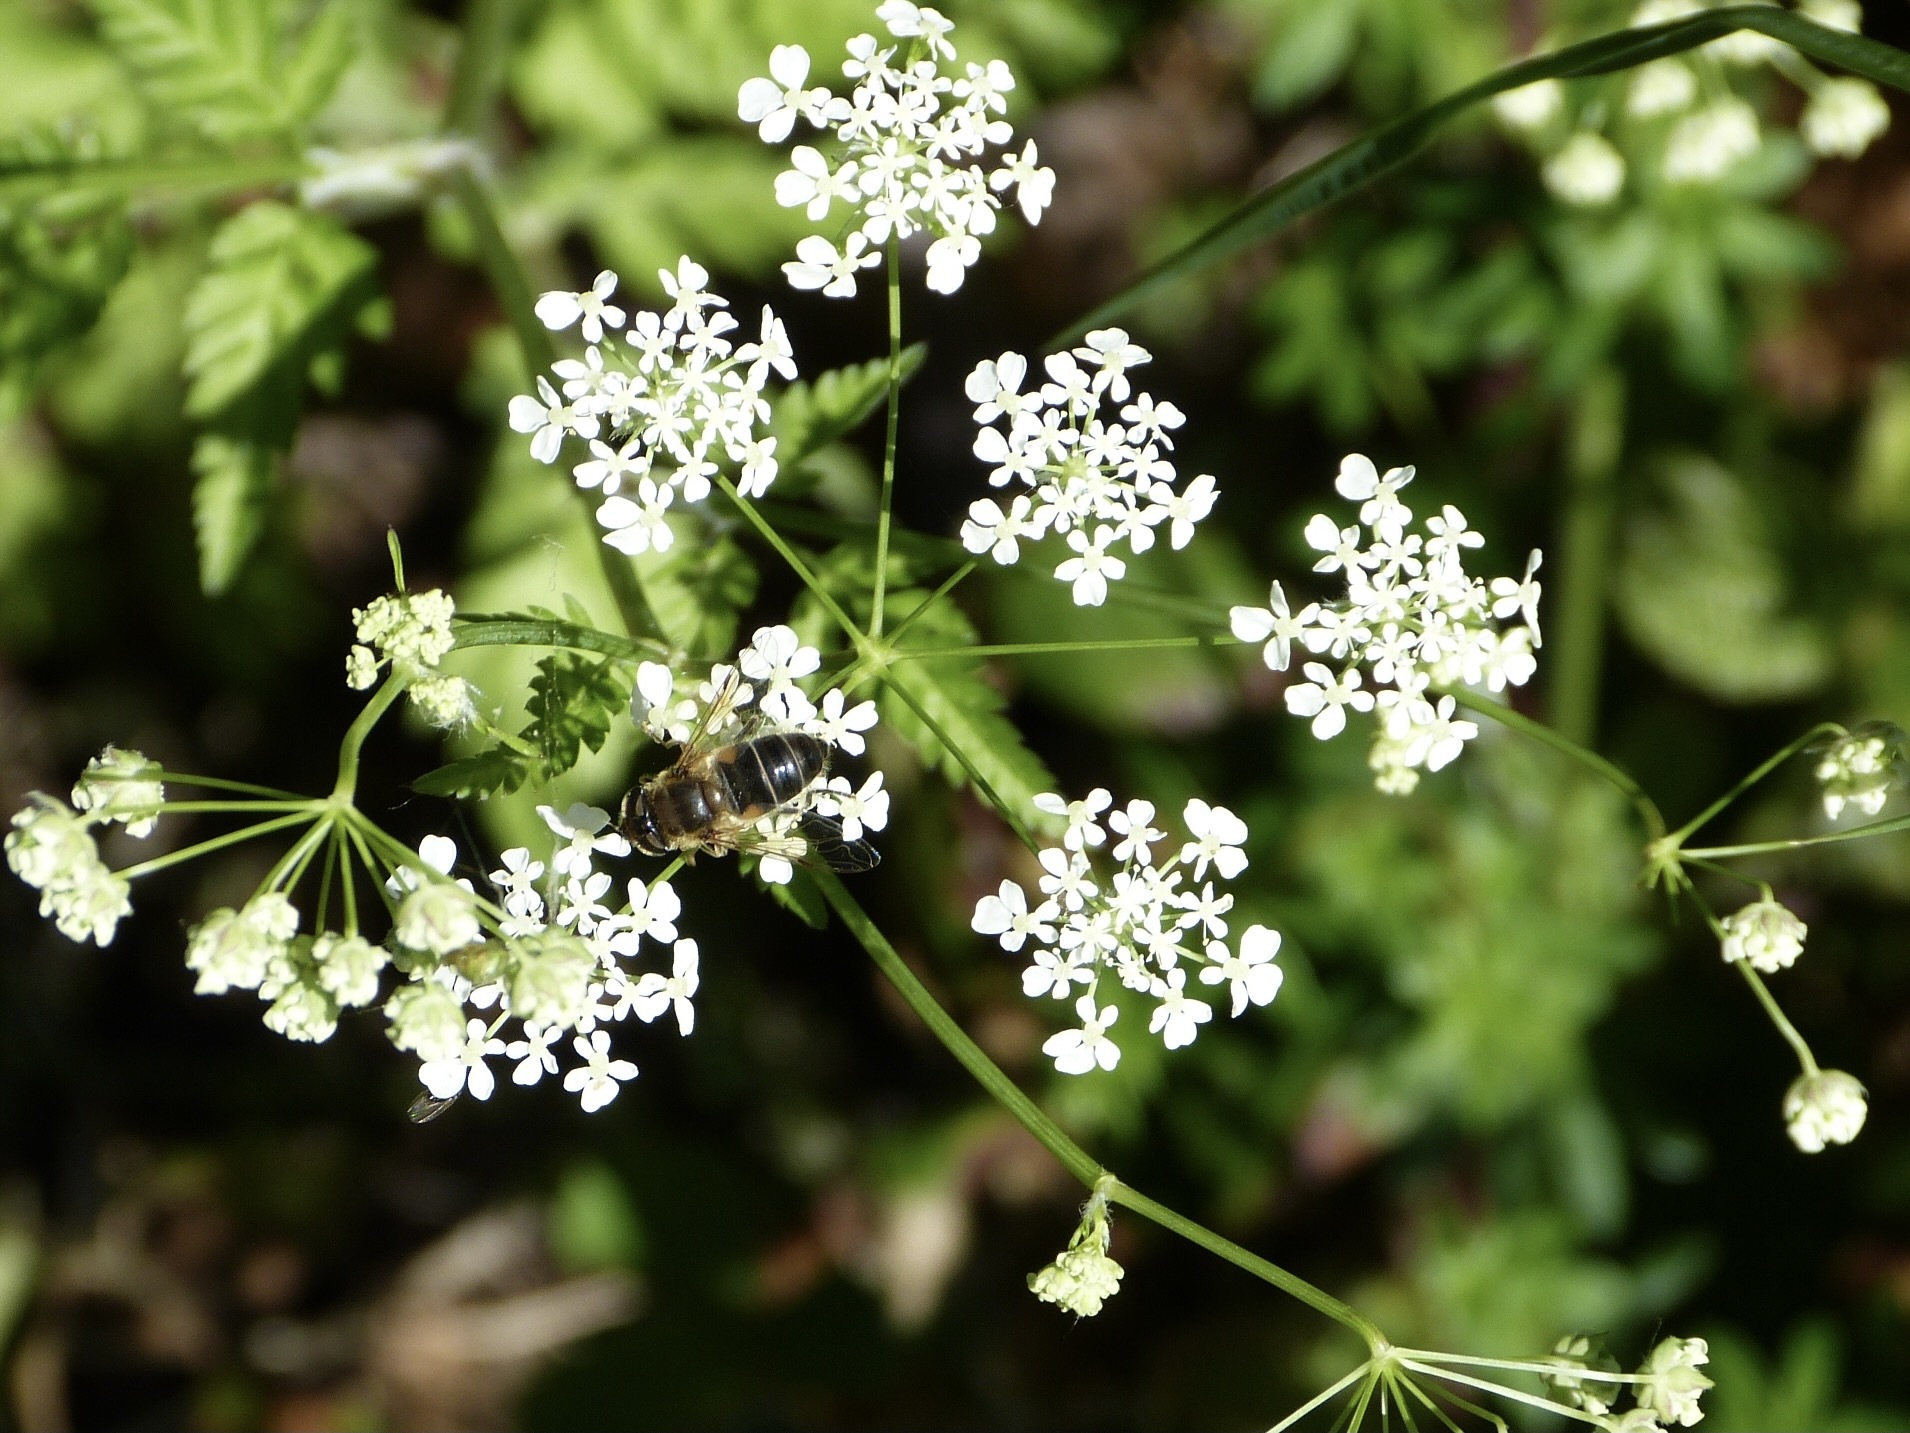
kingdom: Animalia
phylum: Arthropoda
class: Insecta
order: Diptera
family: Syrphidae
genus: Eristalis
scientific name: Eristalis pertinax
